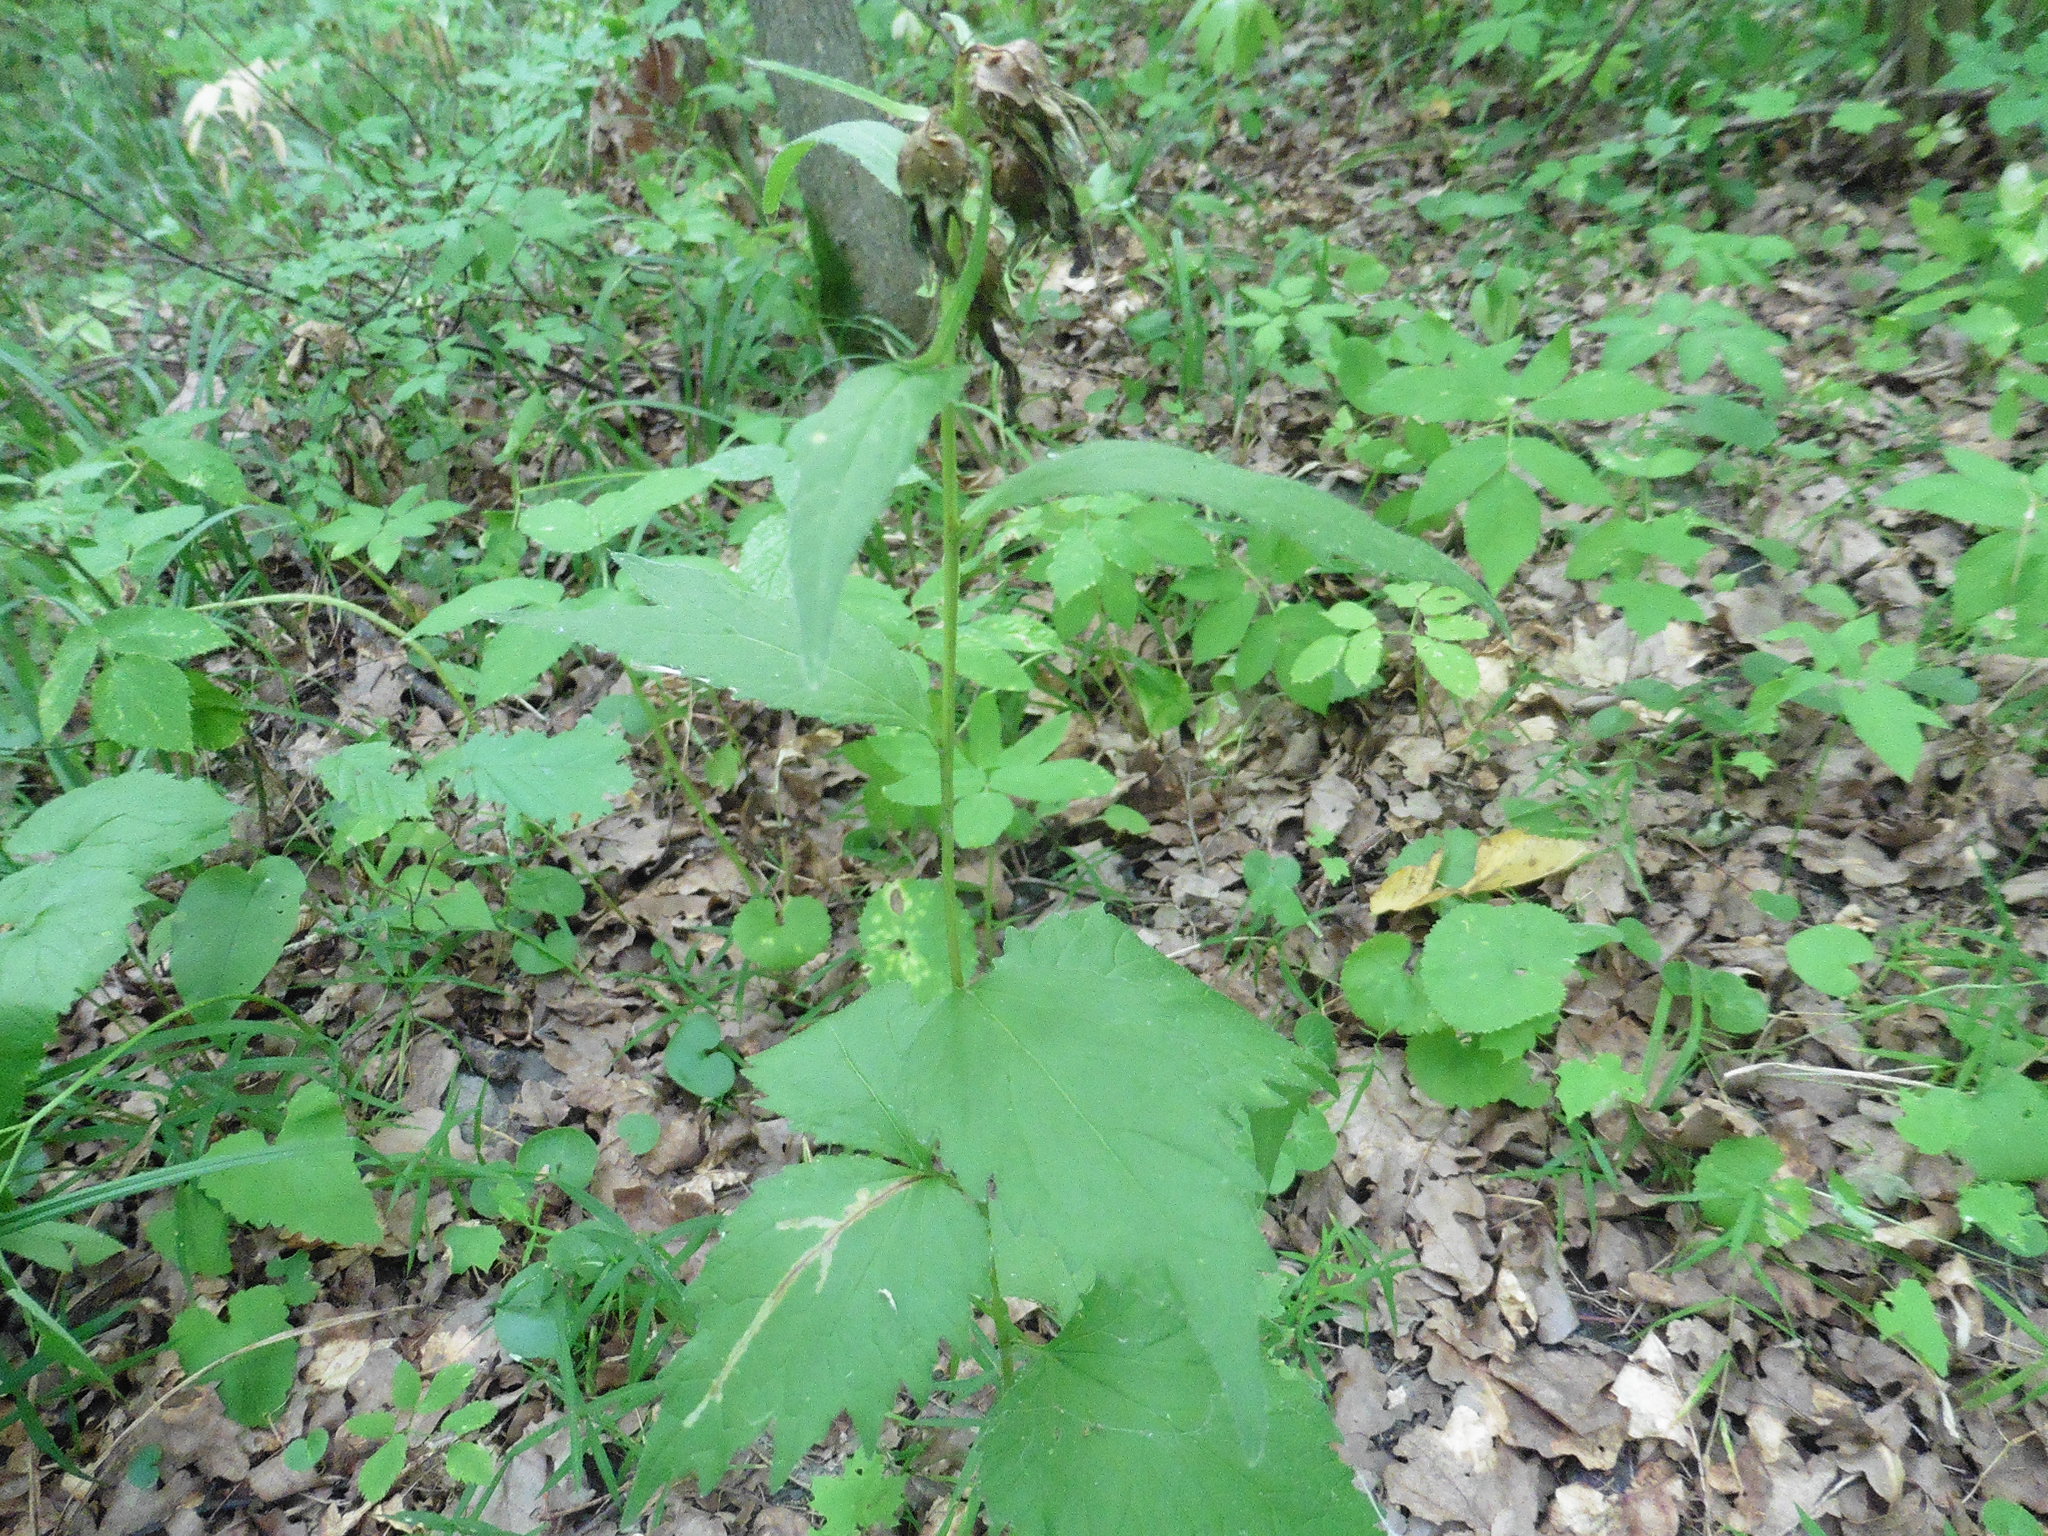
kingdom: Plantae
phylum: Tracheophyta
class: Magnoliopsida
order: Asterales
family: Campanulaceae
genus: Campanula
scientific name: Campanula trachelium
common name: Nettle-leaved bellflower
